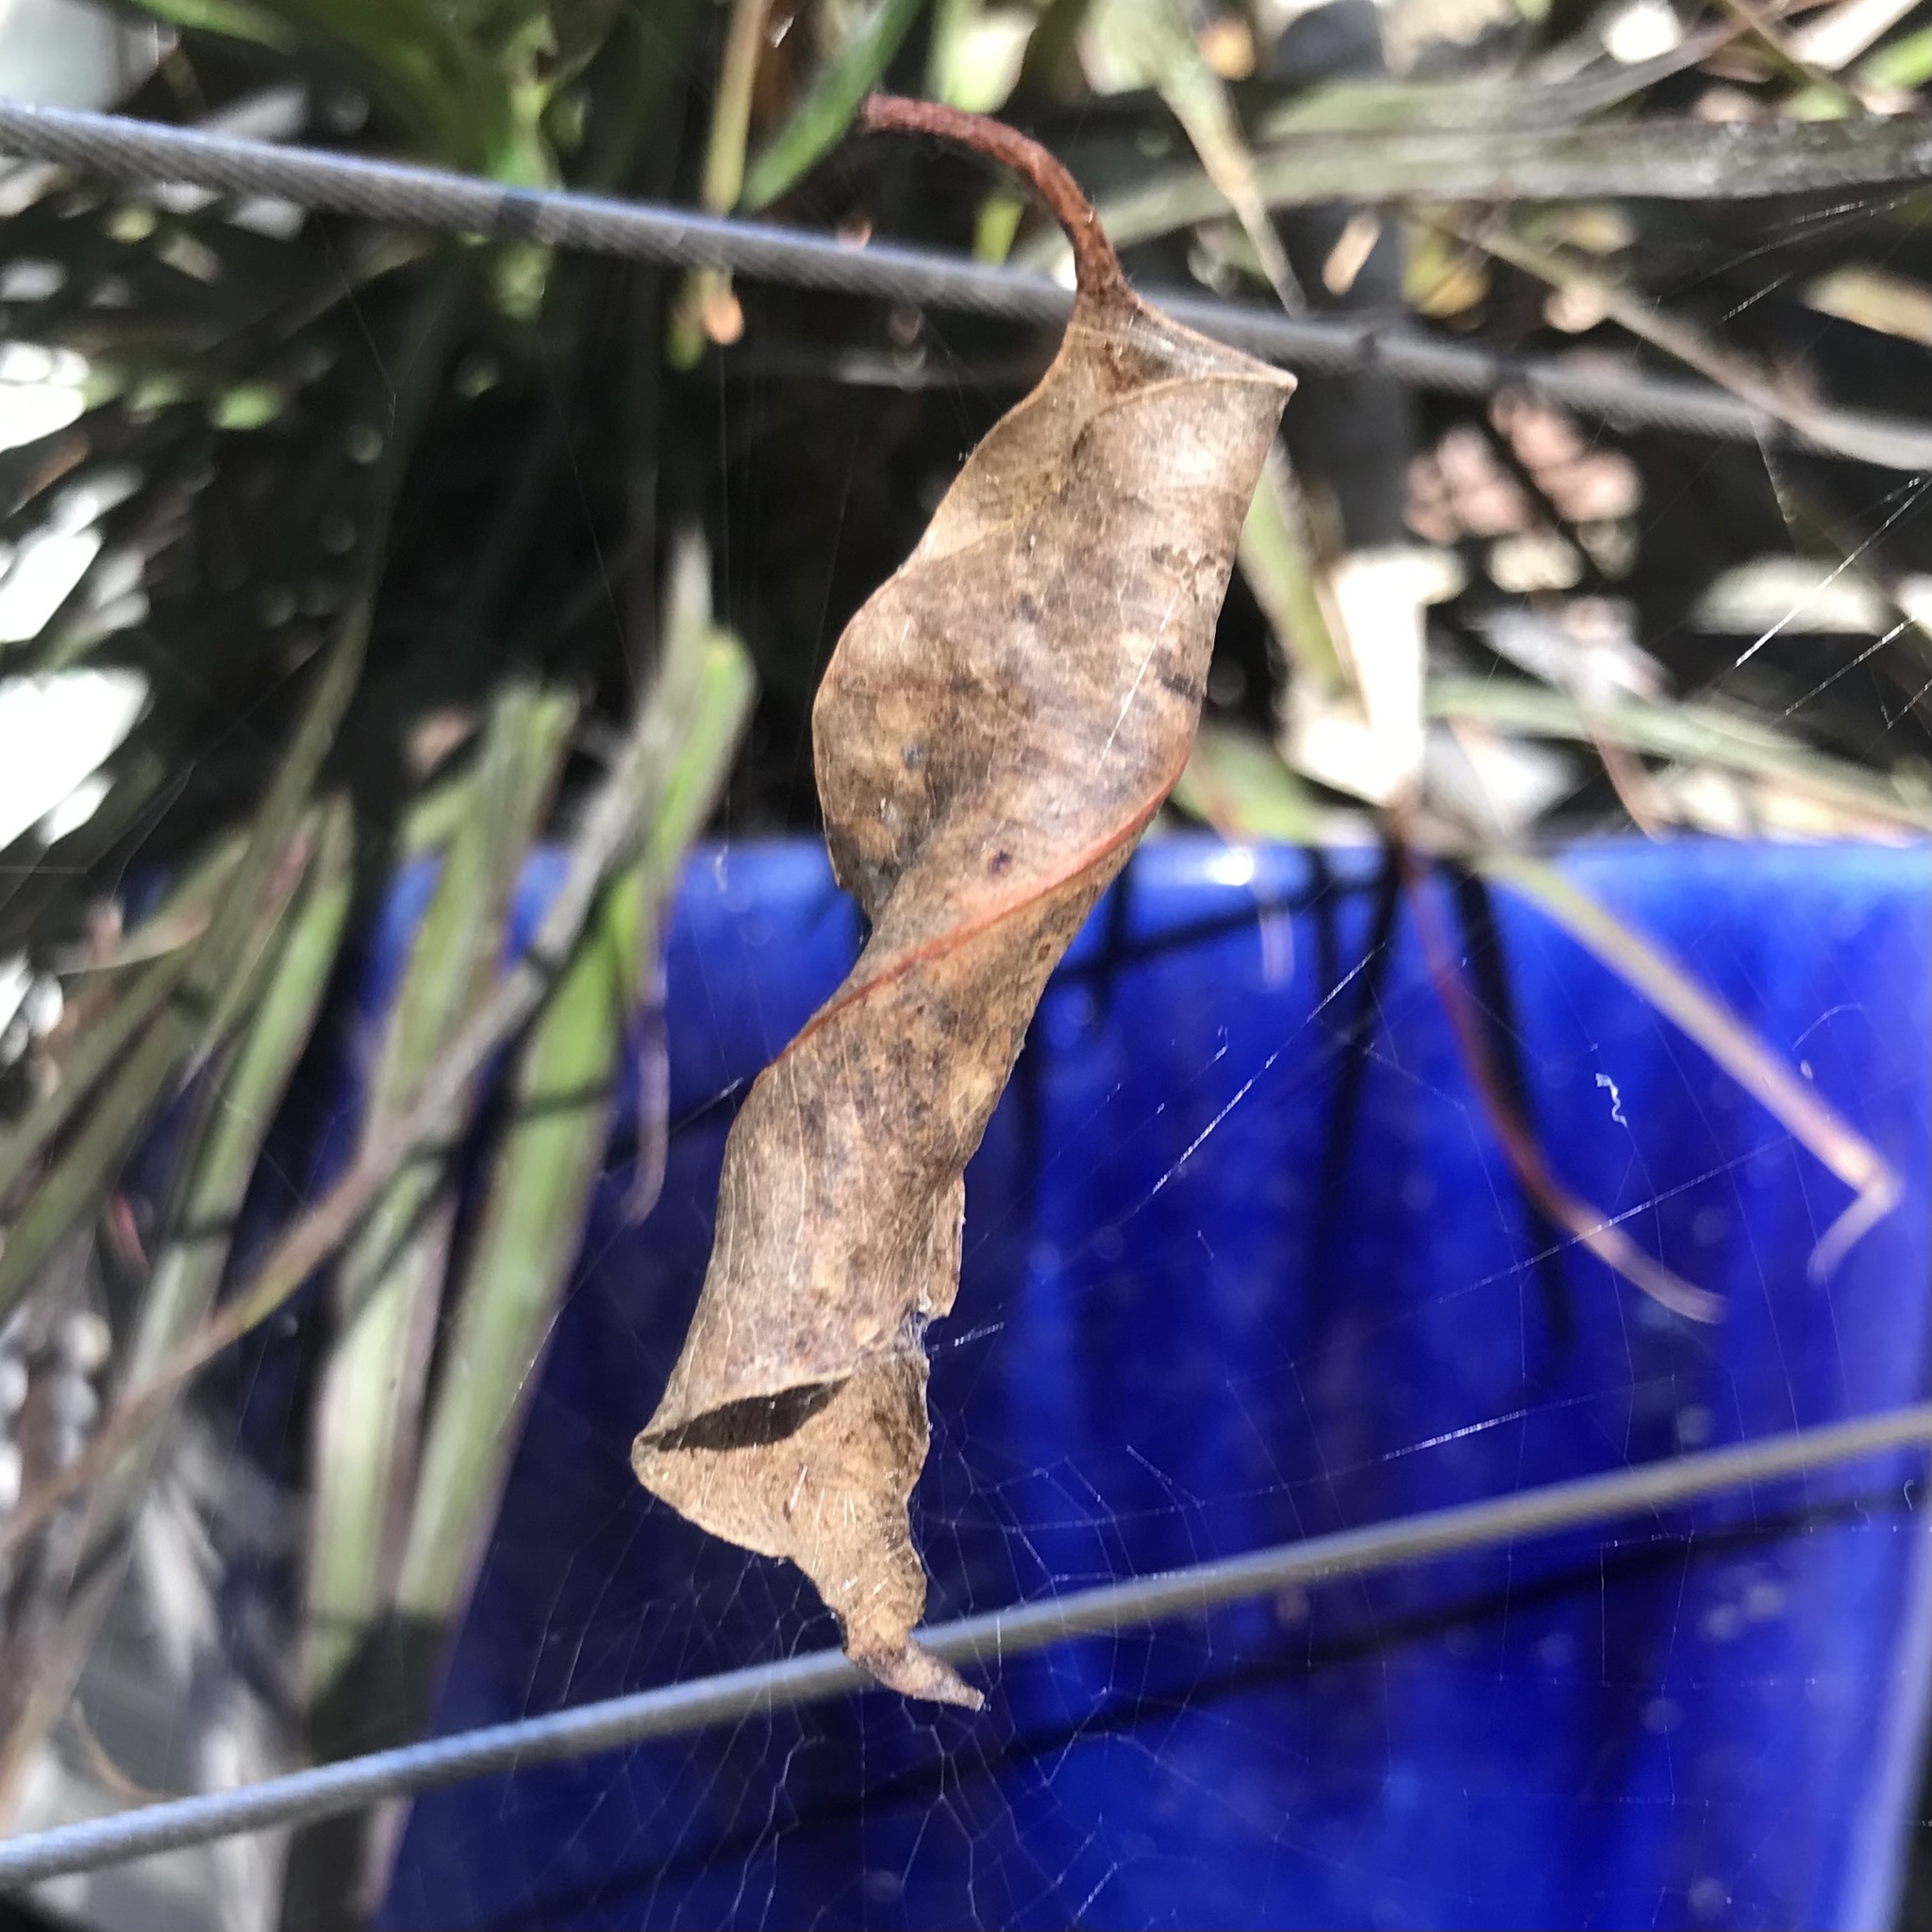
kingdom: Animalia
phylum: Arthropoda
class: Arachnida
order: Araneae
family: Araneidae
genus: Phonognatha
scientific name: Phonognatha graeffei
